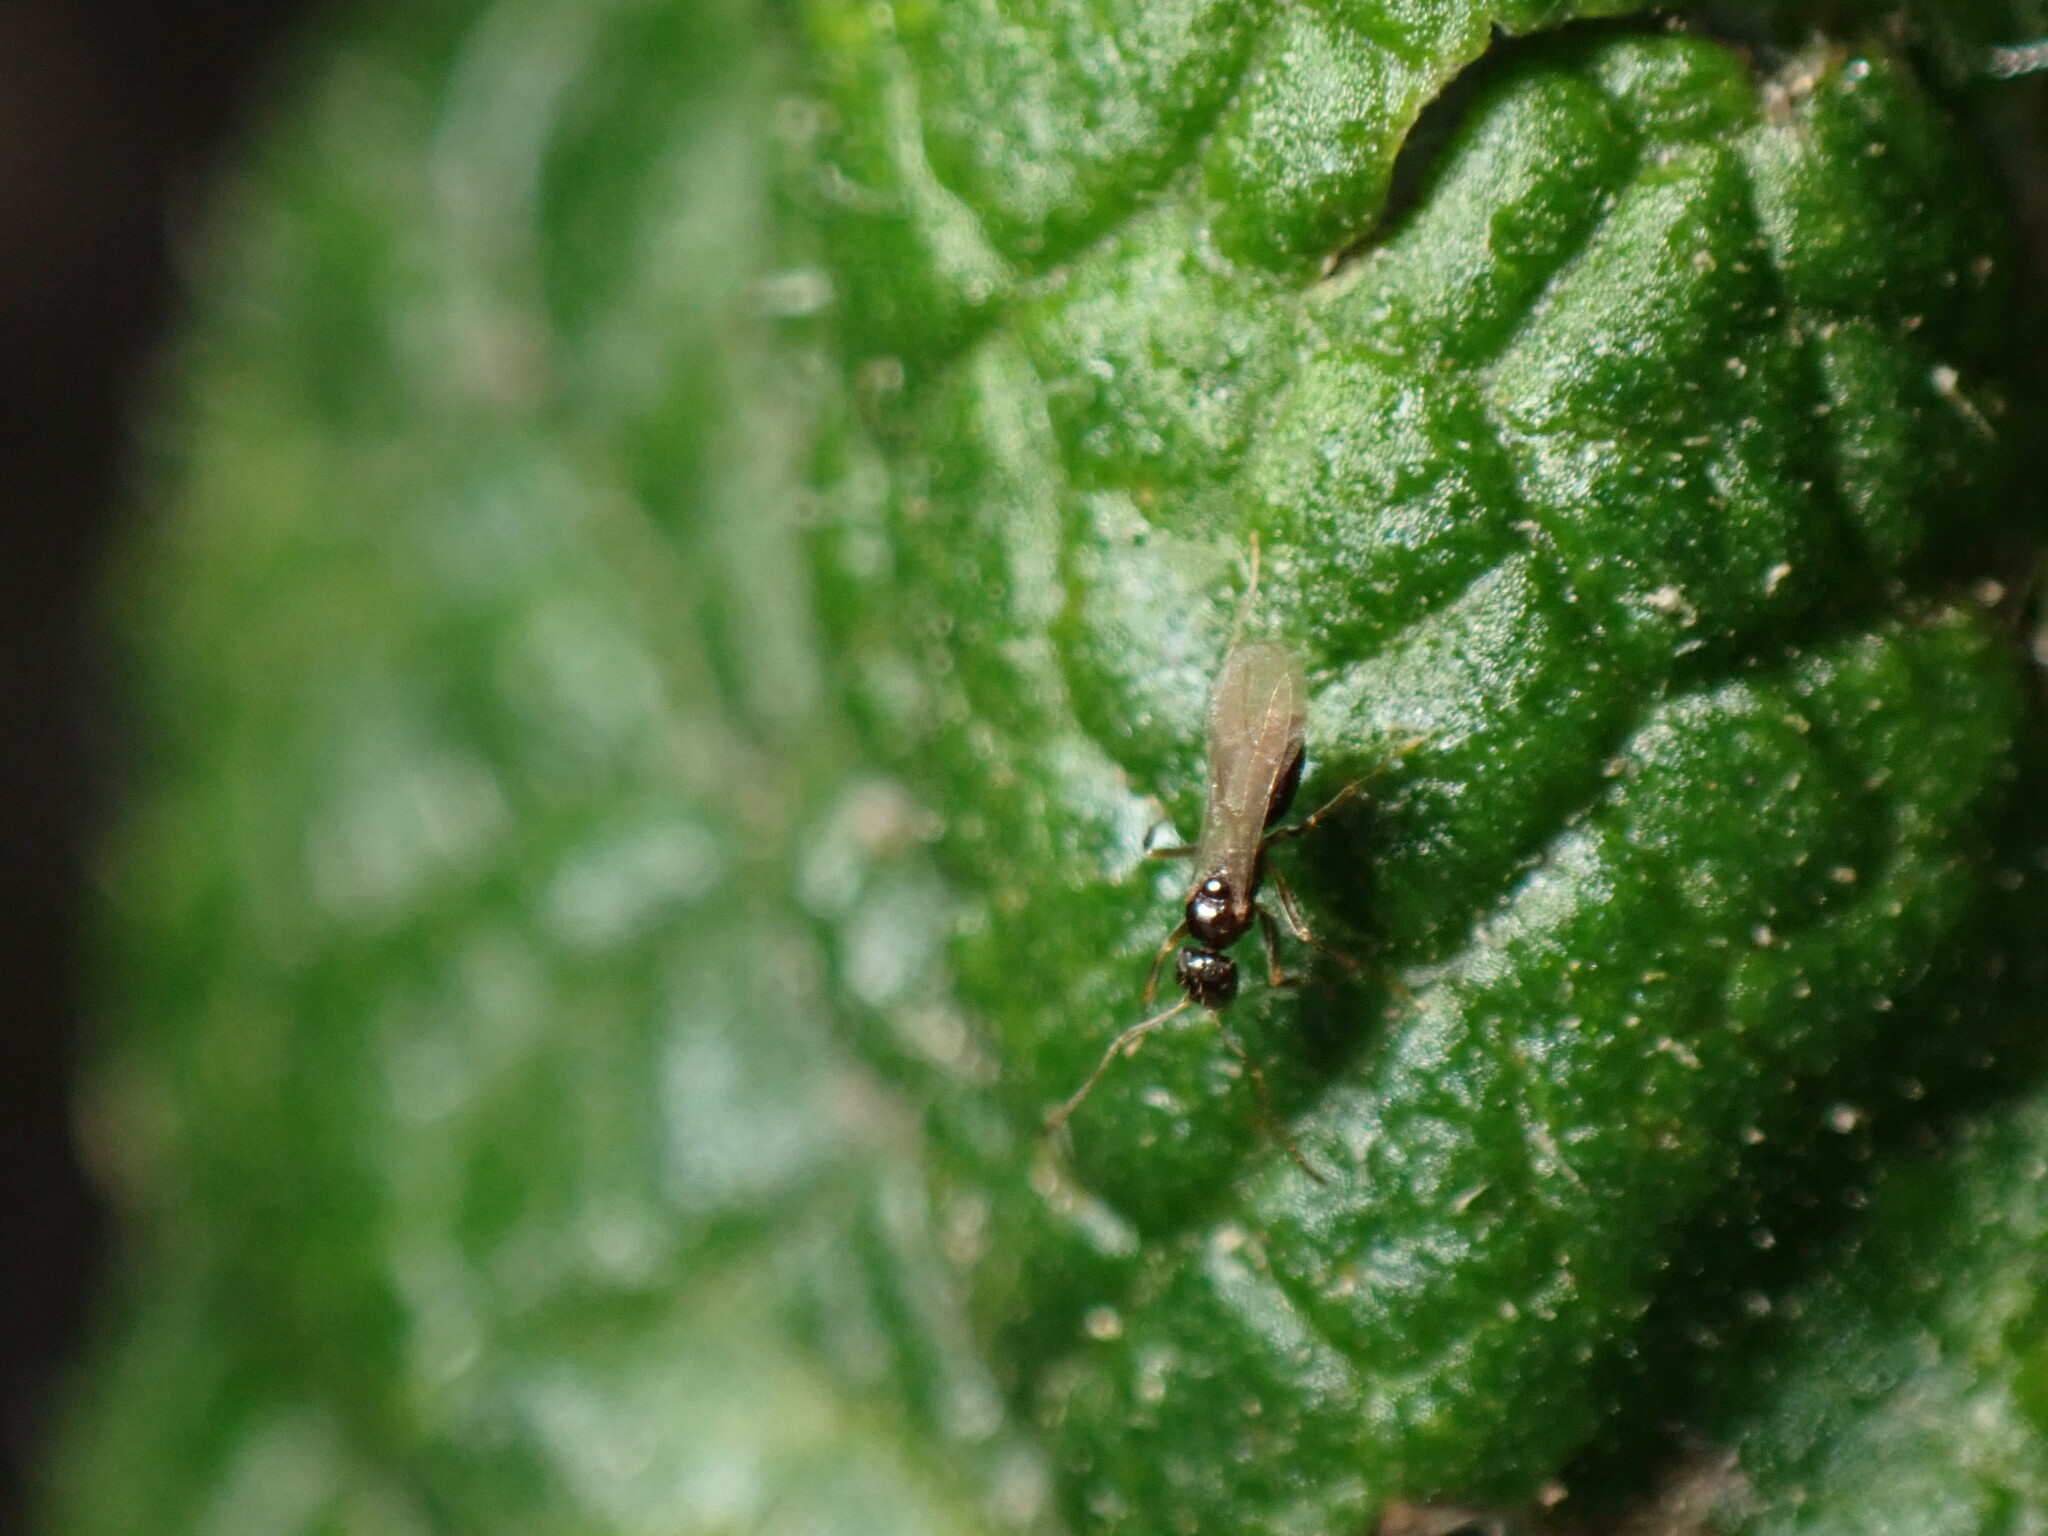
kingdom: Animalia
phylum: Arthropoda
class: Insecta
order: Hymenoptera
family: Formicidae
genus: Paratrechina
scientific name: Paratrechina flavipes
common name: Eastern asian formicine ant
